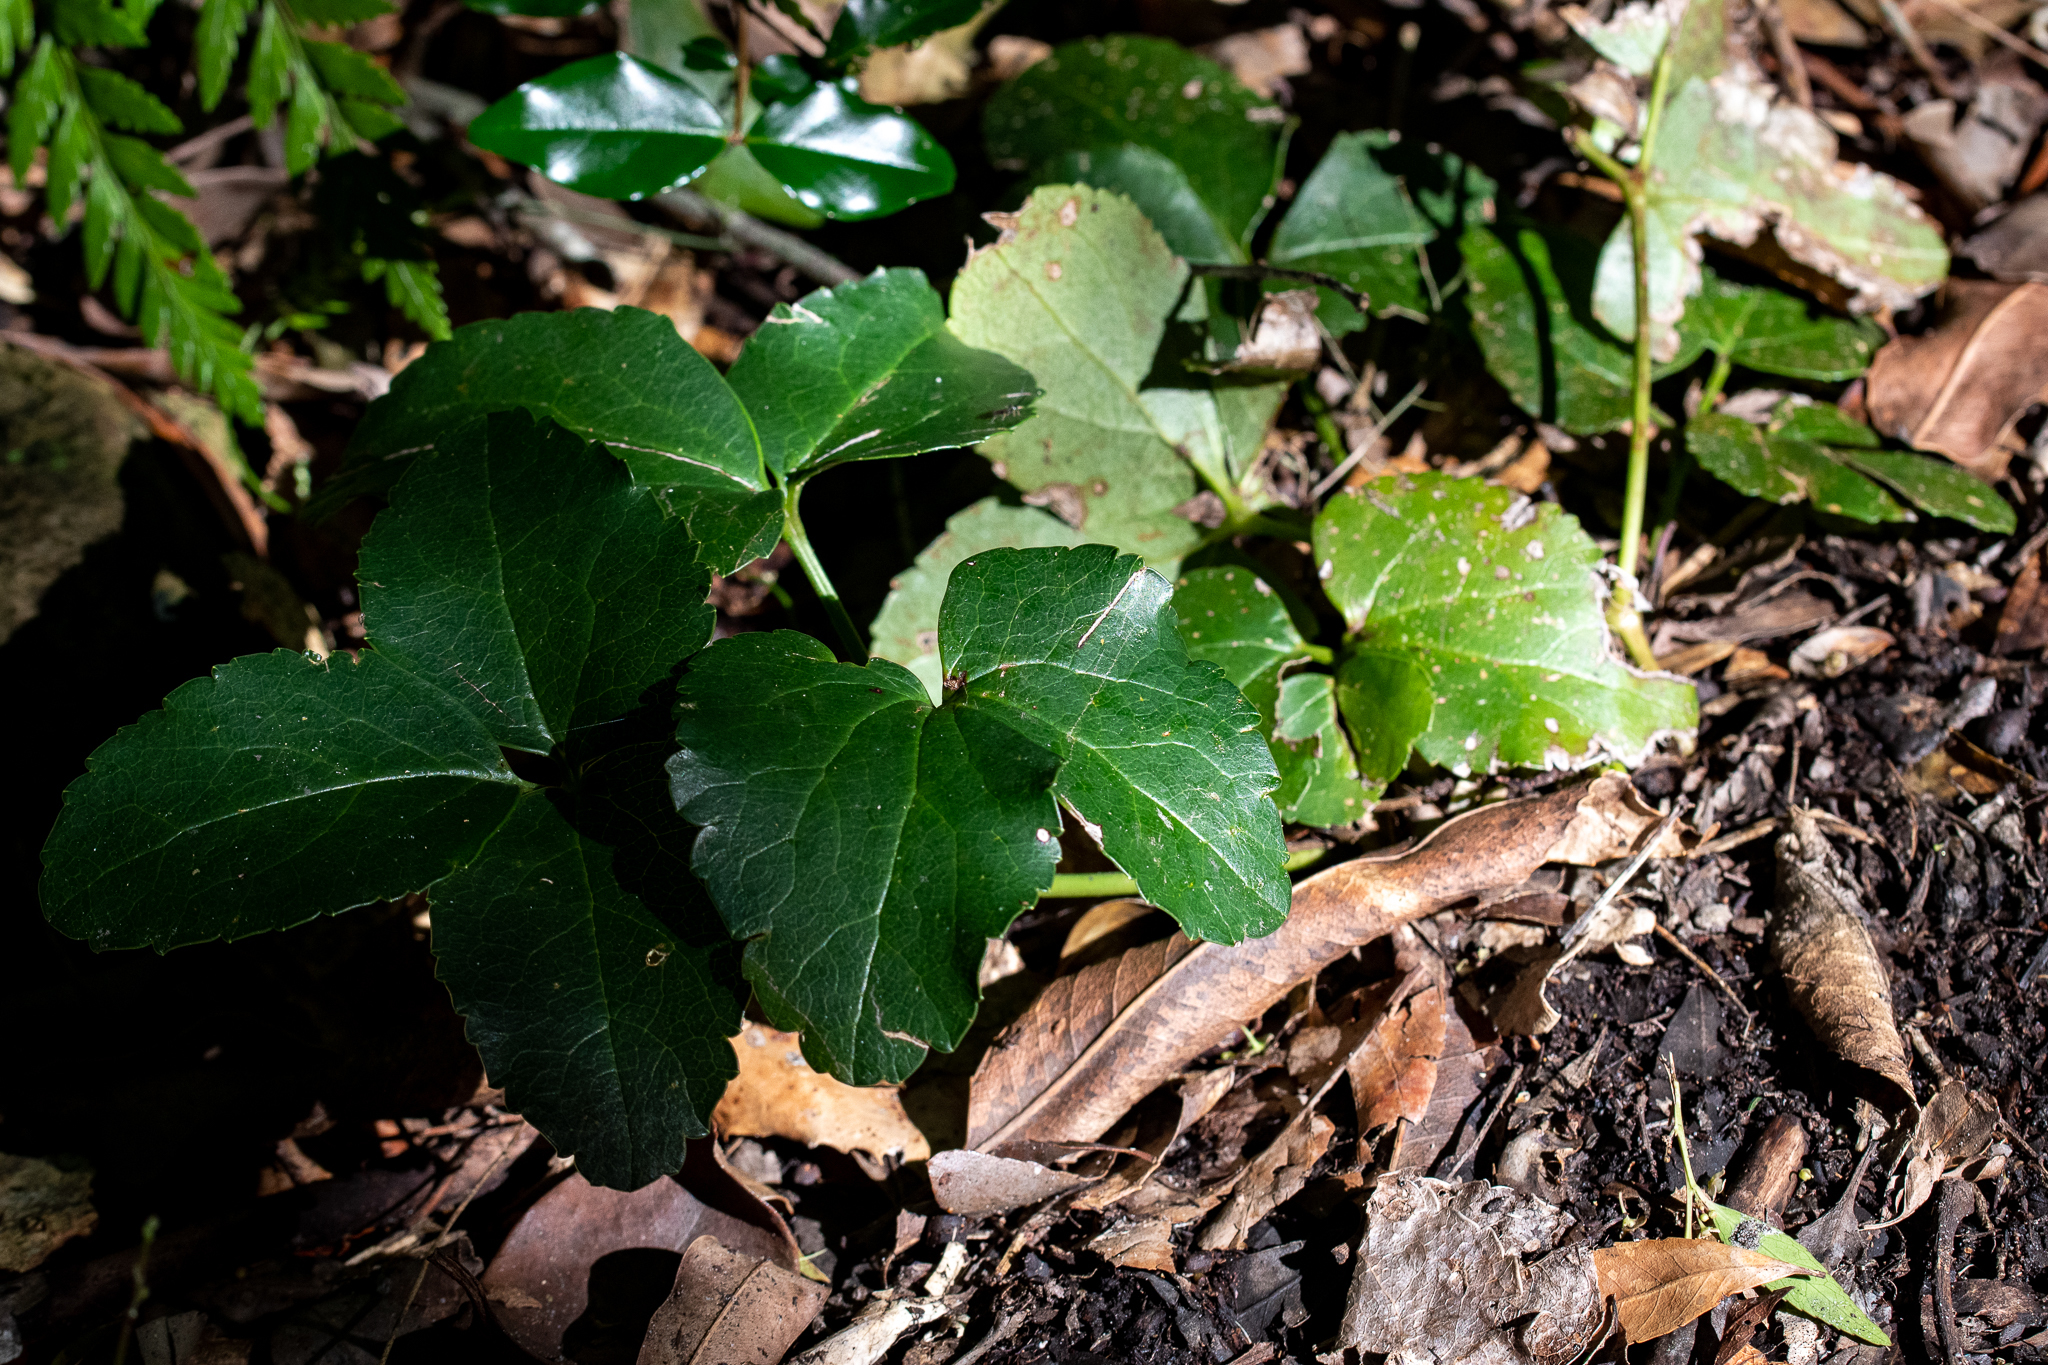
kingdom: Plantae
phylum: Tracheophyta
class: Magnoliopsida
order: Ranunculales
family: Ranunculaceae
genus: Knowltonia
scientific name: Knowltonia vesicatoria
